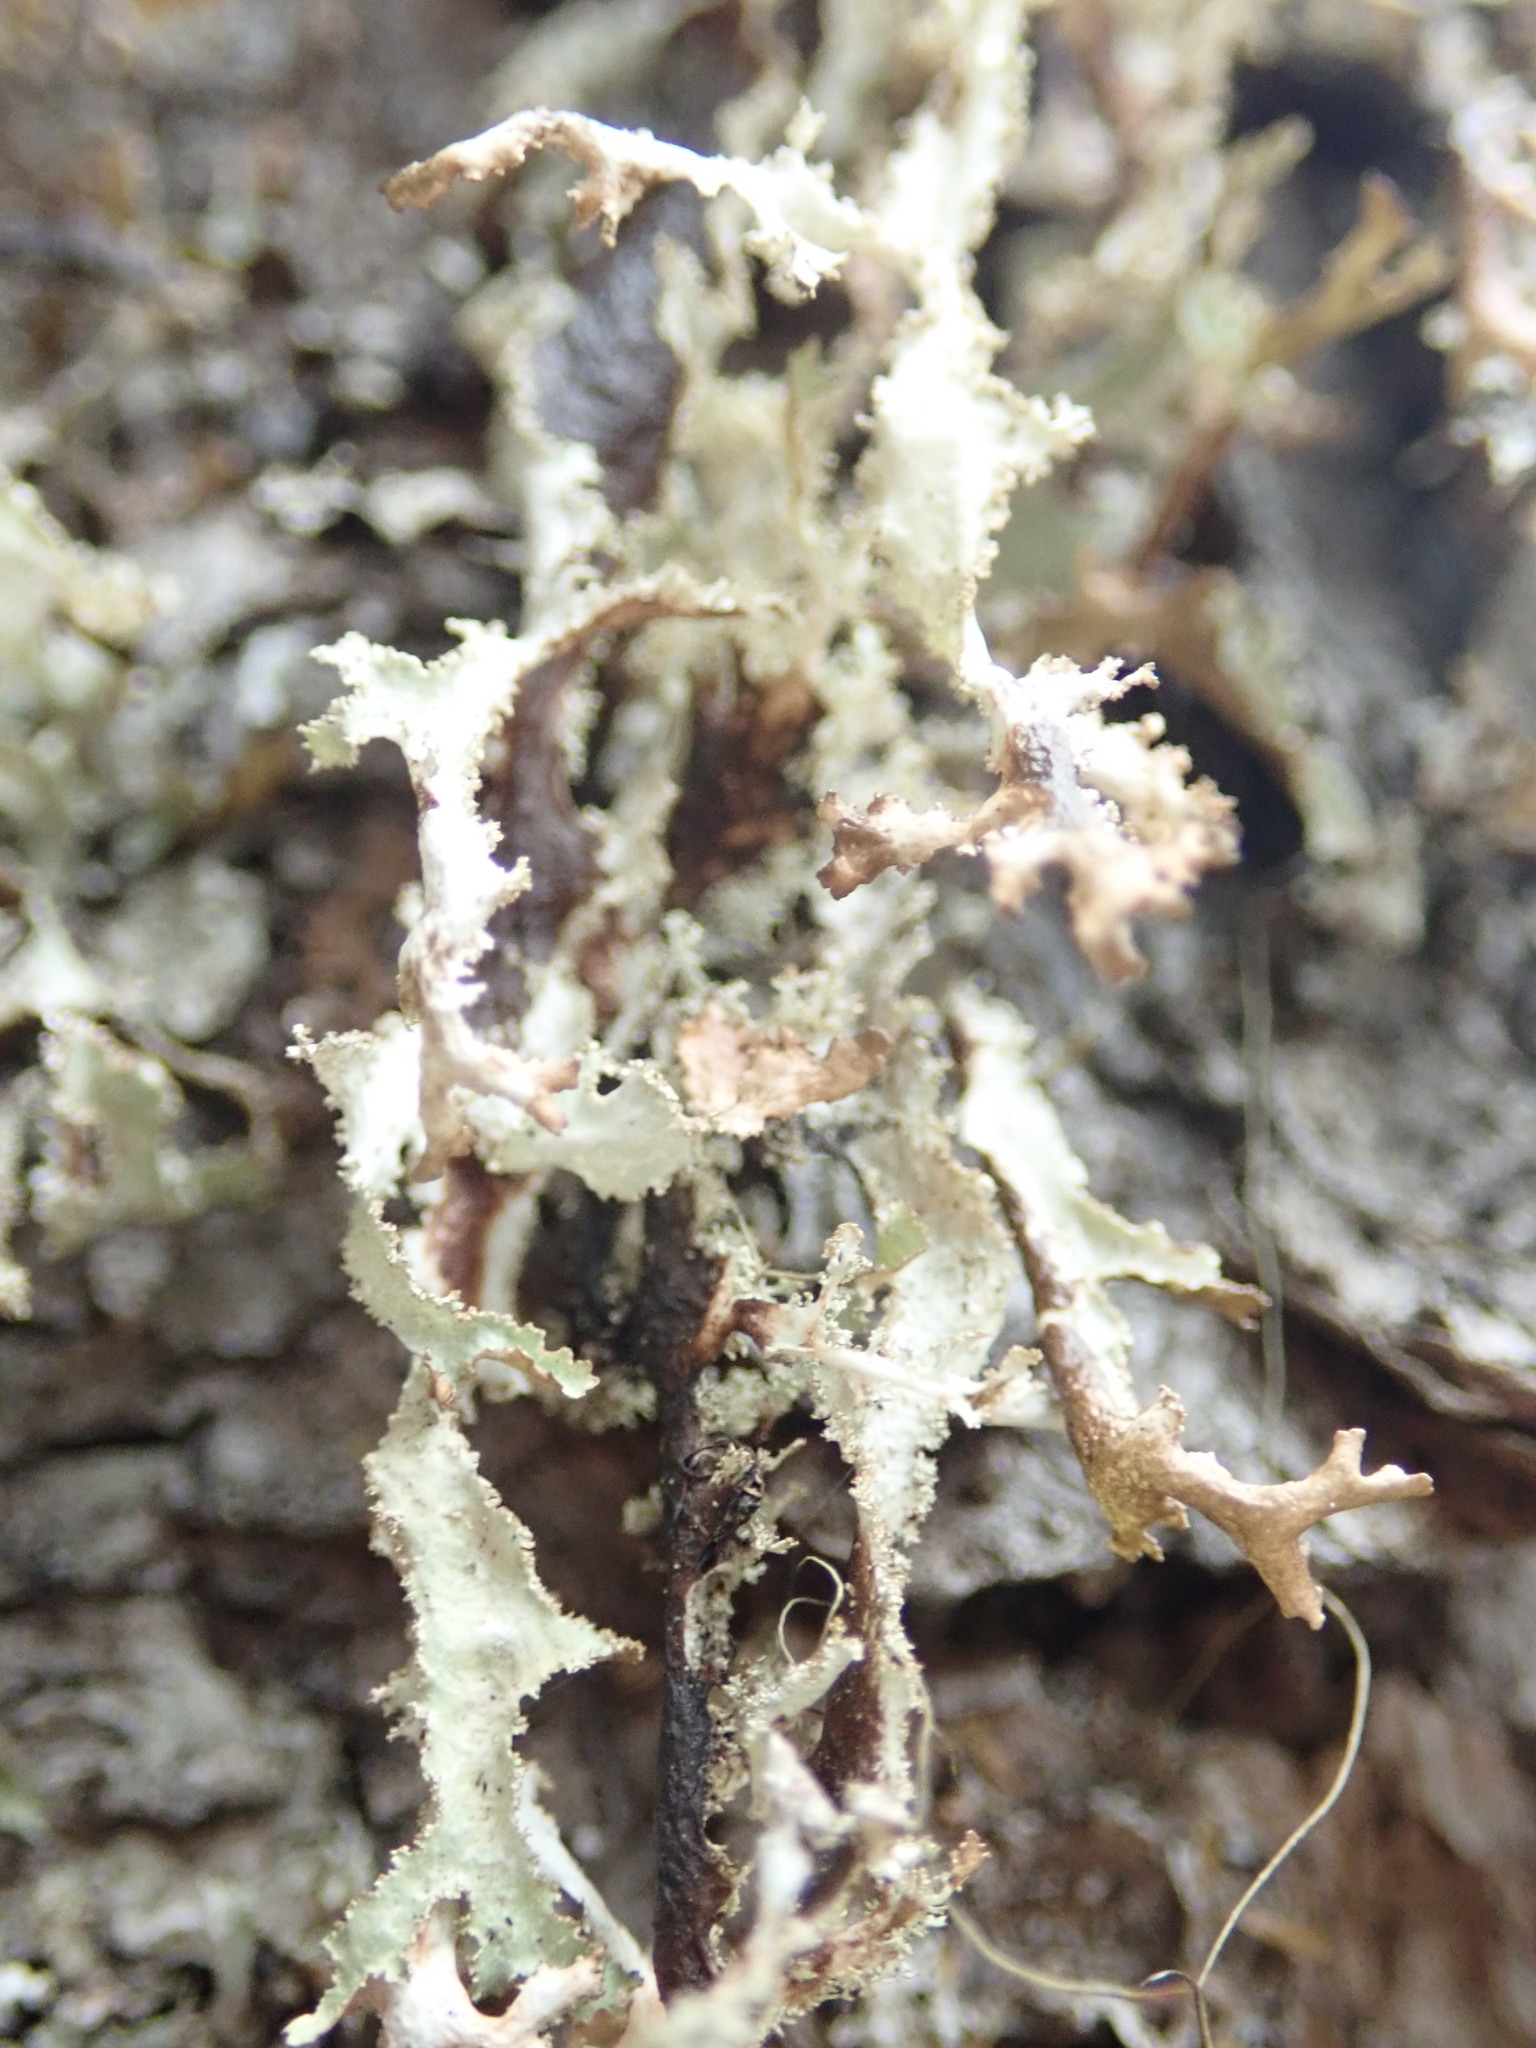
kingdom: Fungi
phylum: Ascomycota
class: Lecanoromycetes
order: Lecanorales
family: Parmeliaceae
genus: Platismatia
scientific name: Platismatia herrei
